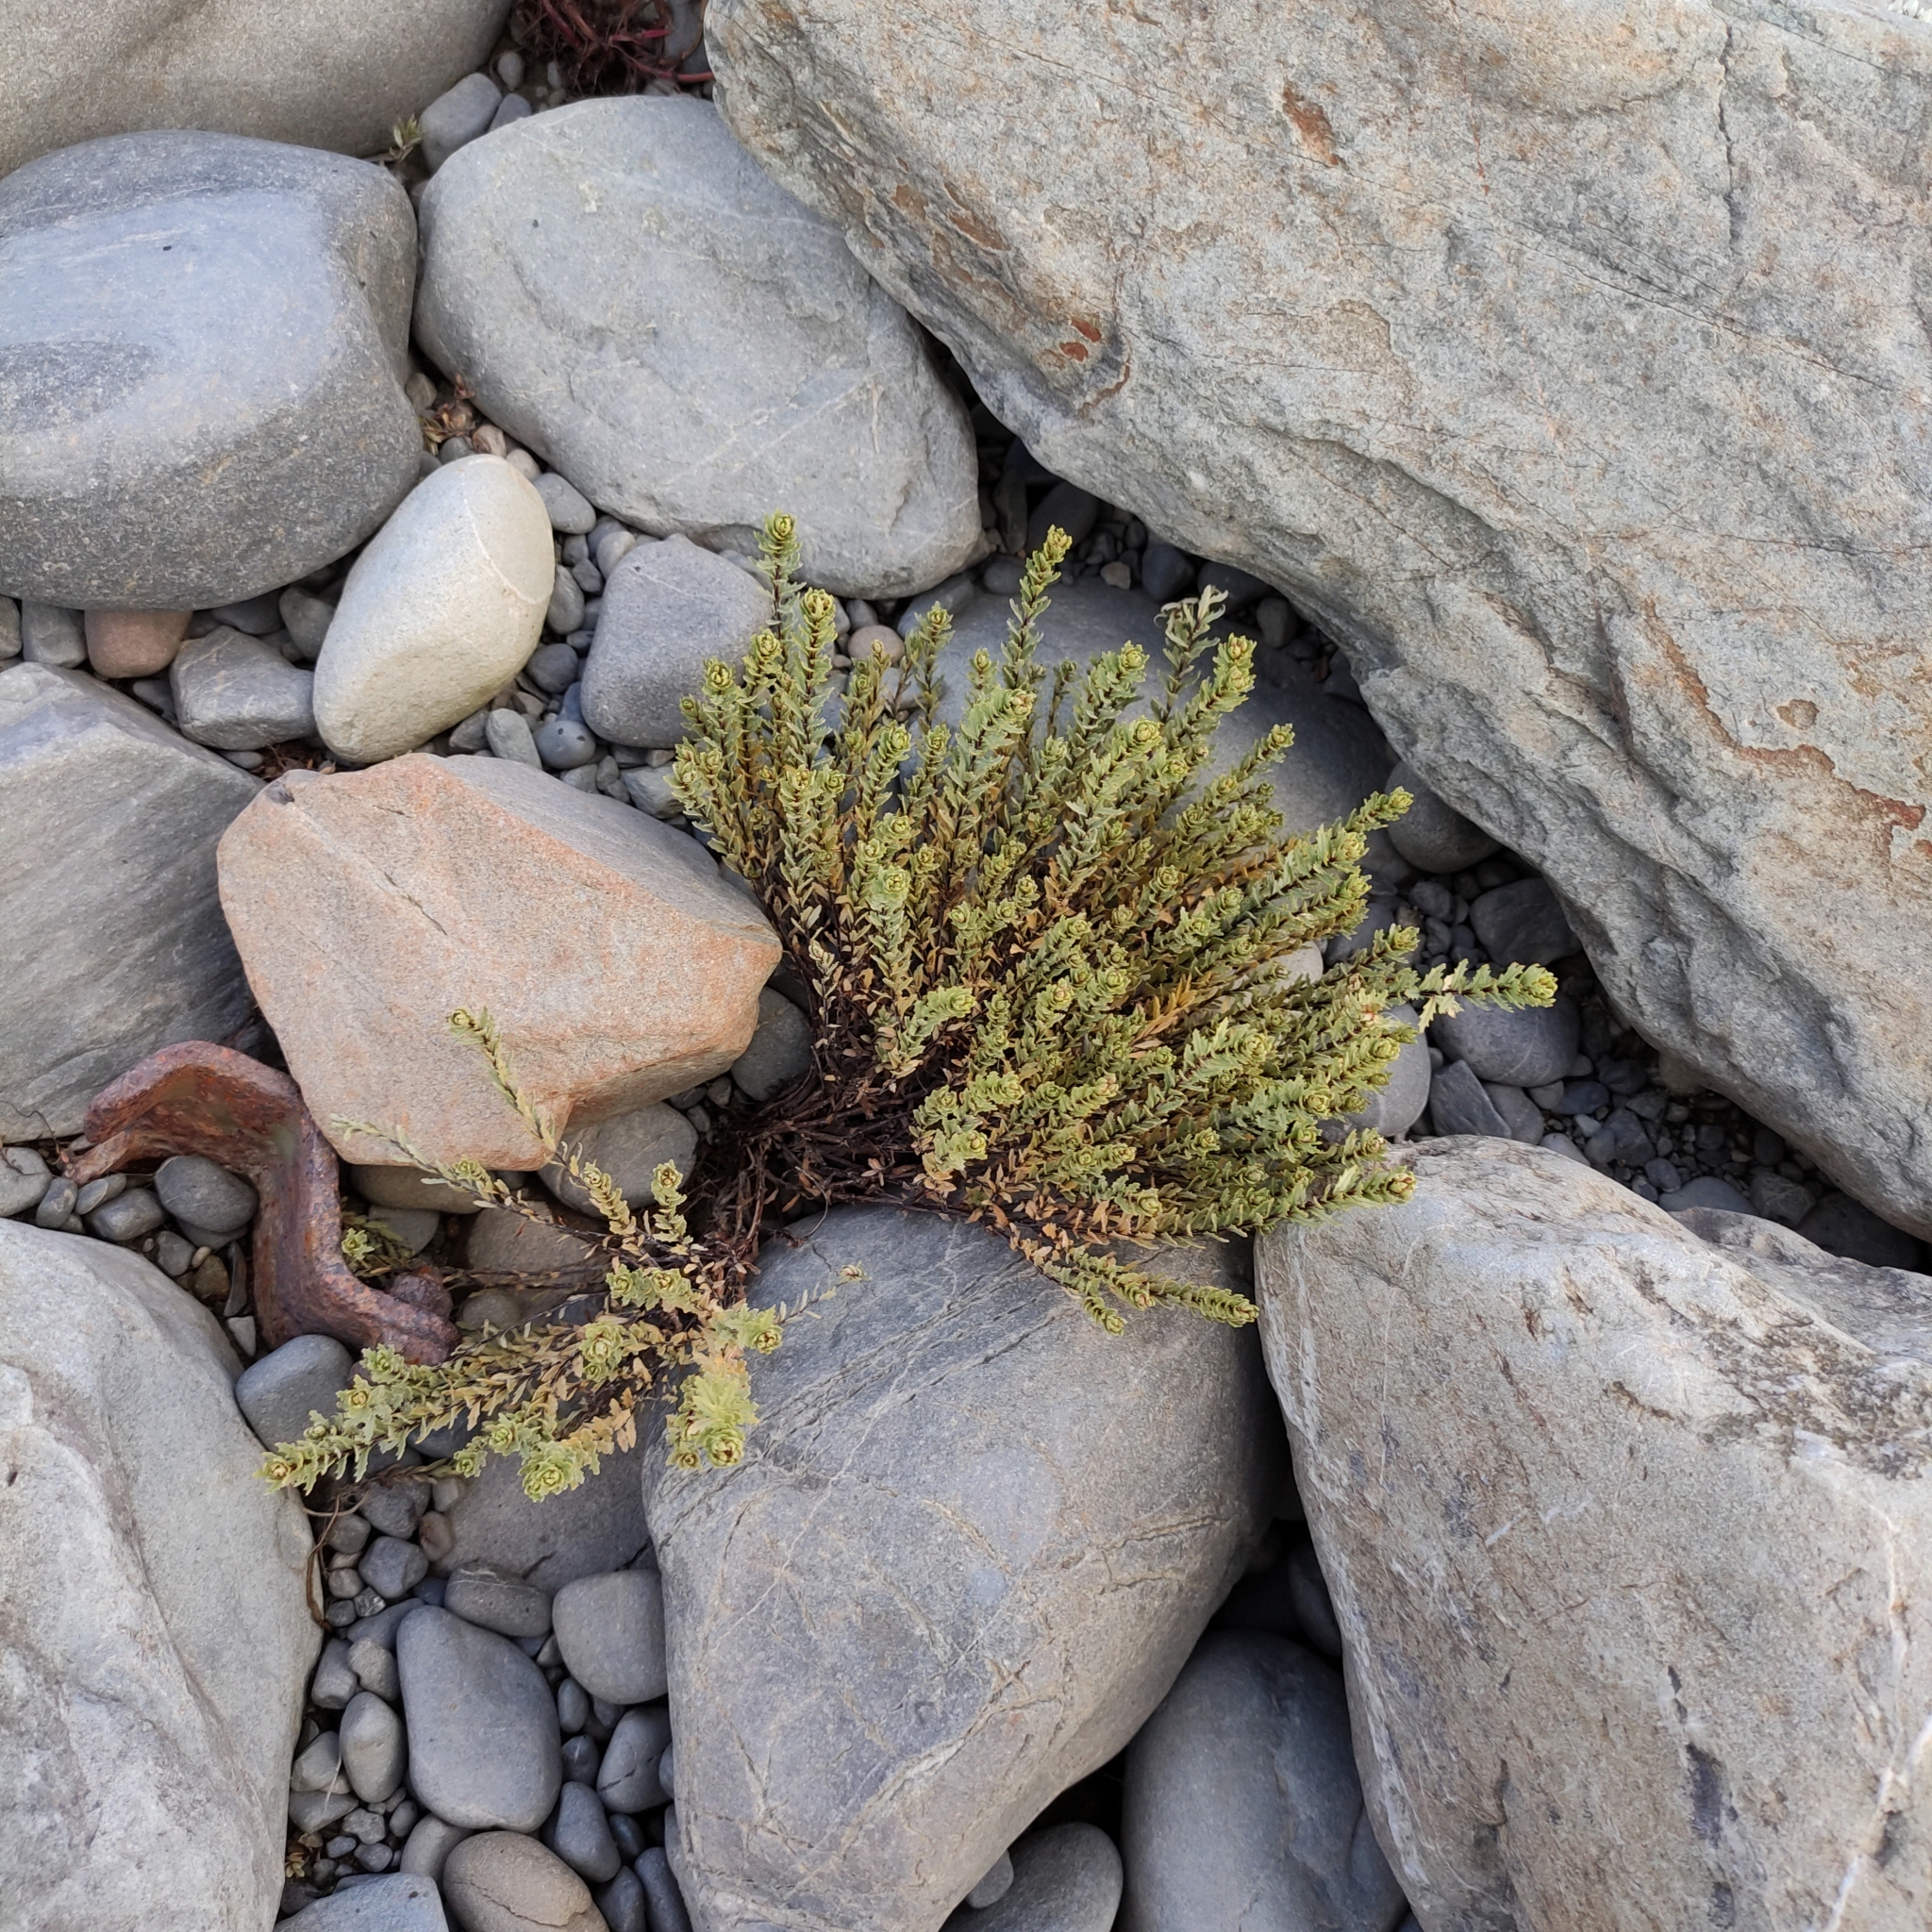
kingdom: Plantae
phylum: Tracheophyta
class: Magnoliopsida
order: Myrtales
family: Onagraceae
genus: Epilobium
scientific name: Epilobium melanocaulon
